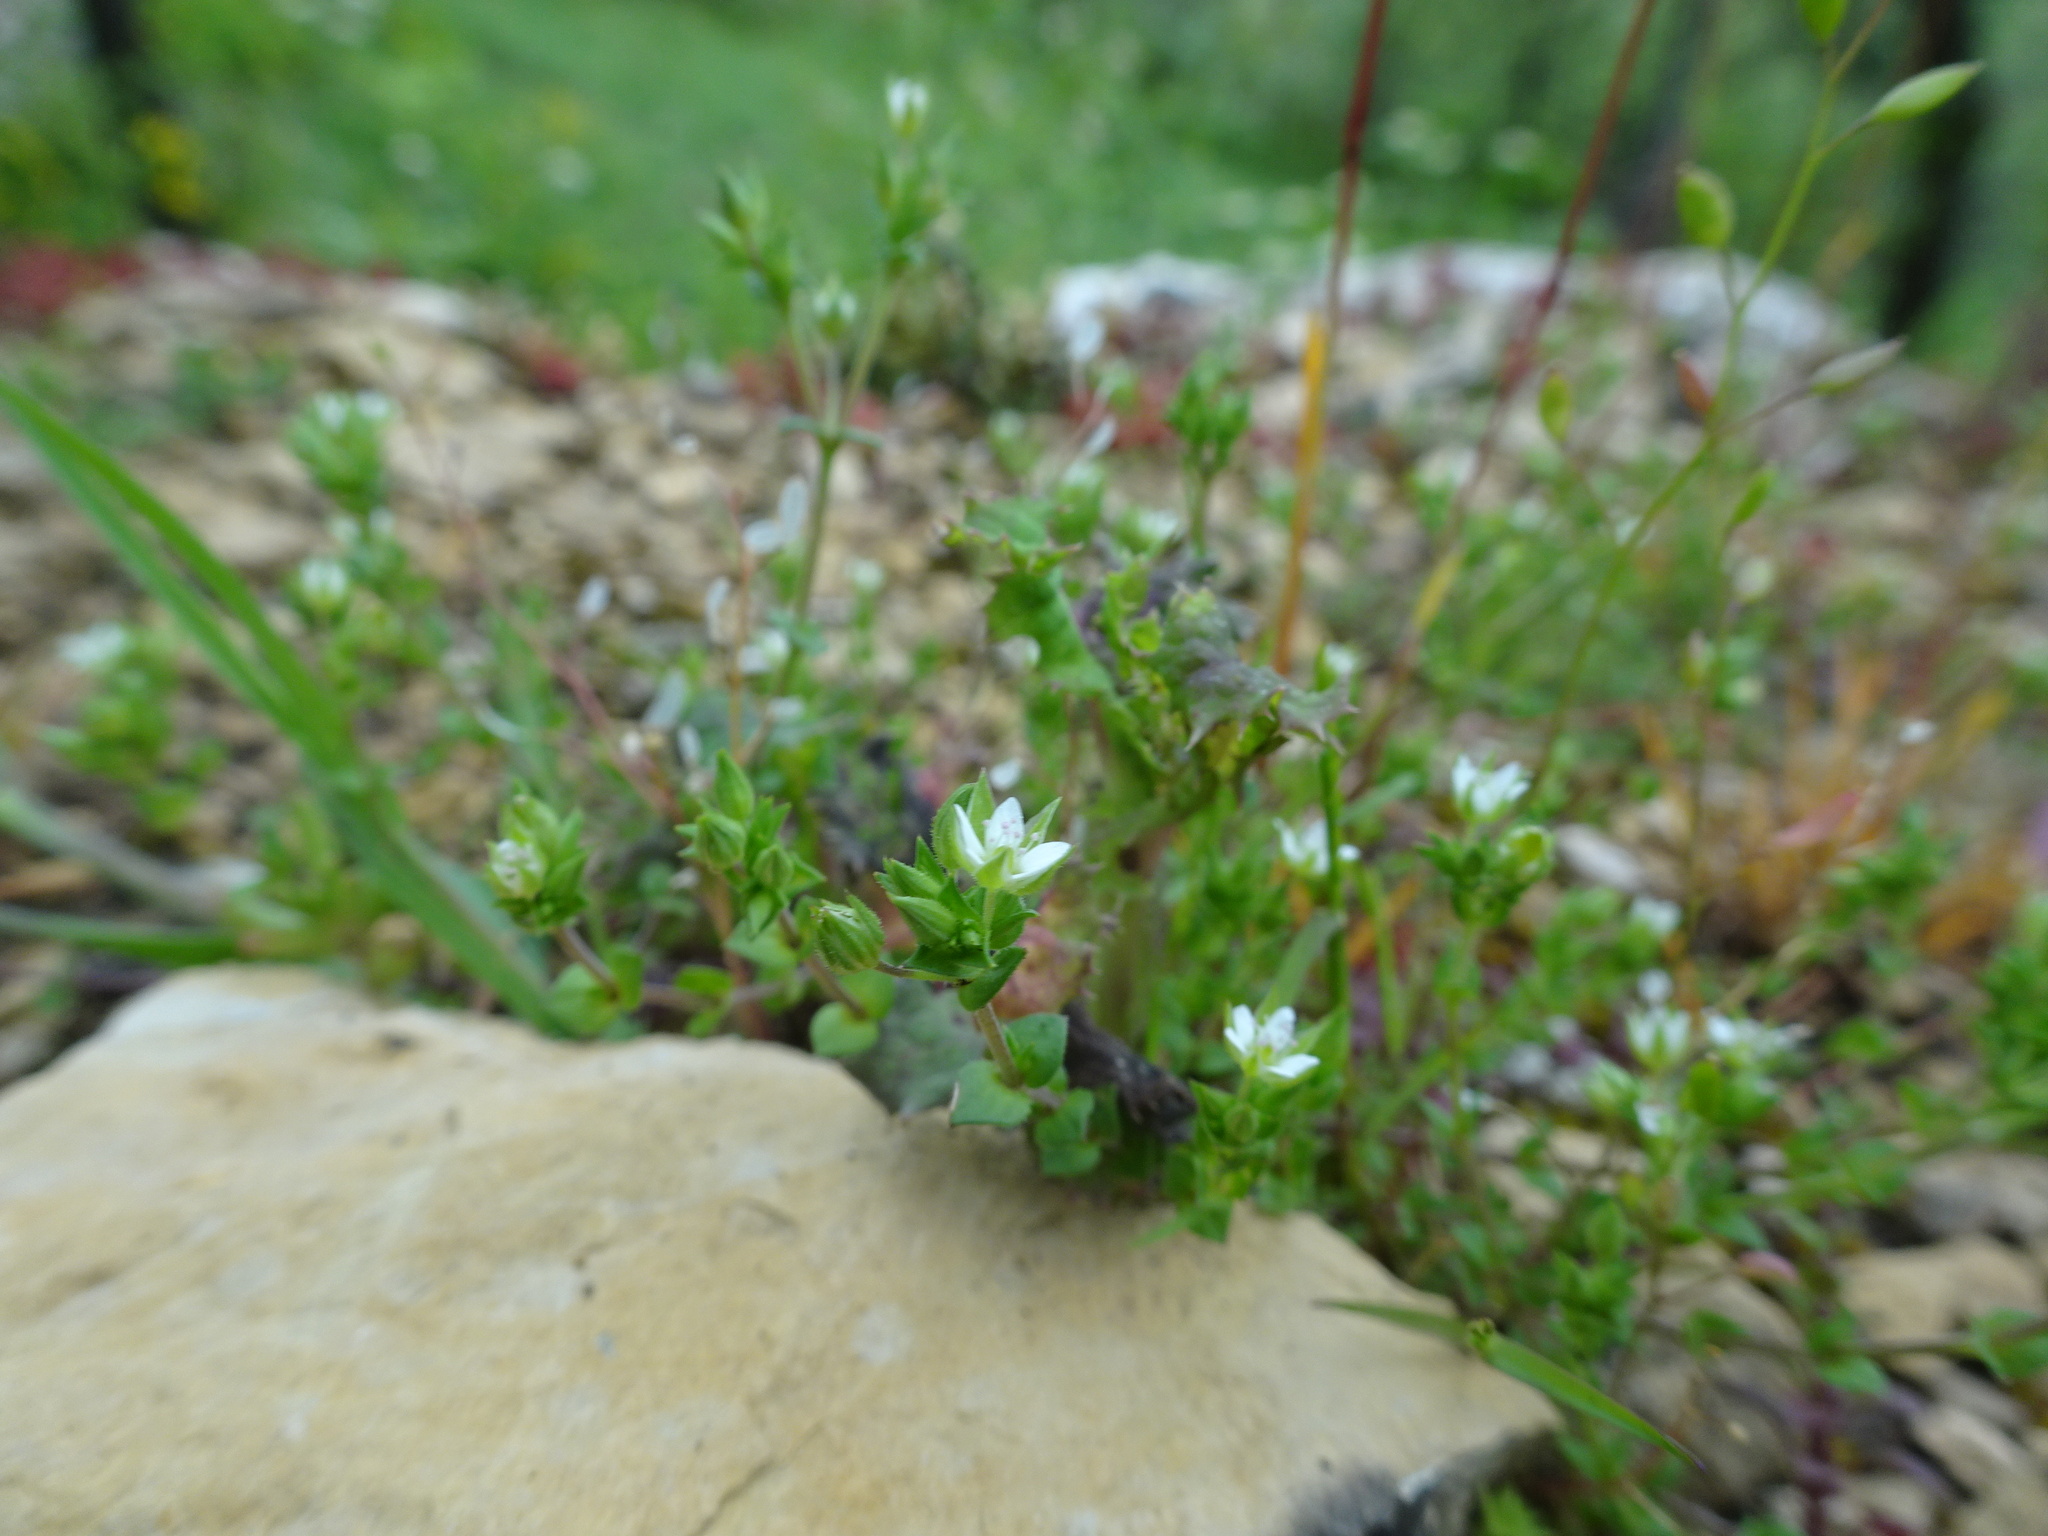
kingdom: Plantae
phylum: Tracheophyta
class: Magnoliopsida
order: Caryophyllales
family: Caryophyllaceae
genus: Arenaria
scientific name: Arenaria serpyllifolia
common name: Thyme-leaved sandwort
